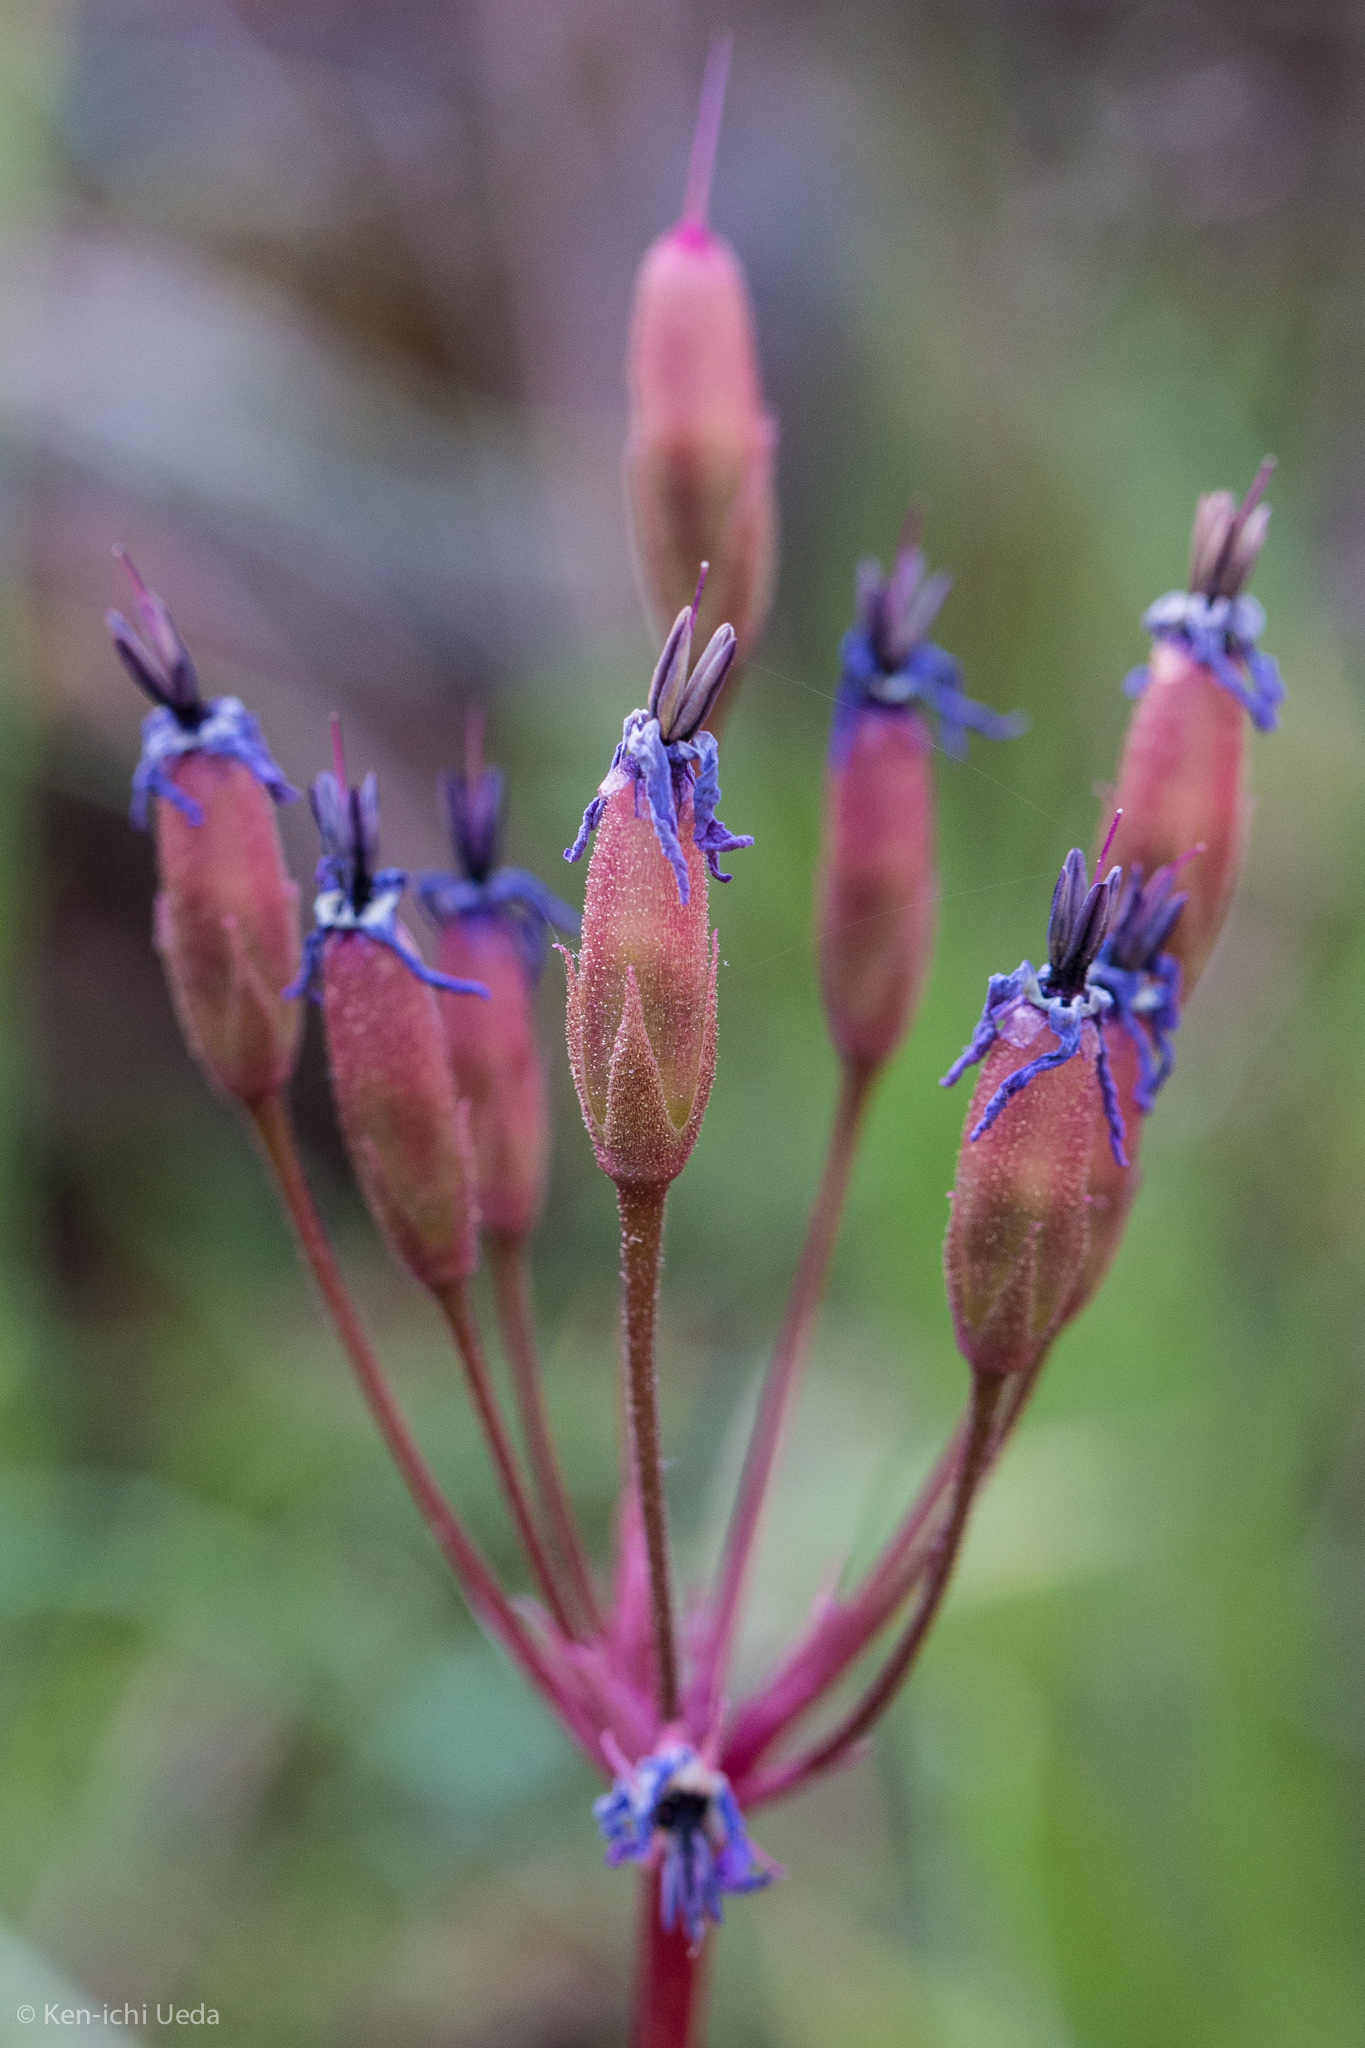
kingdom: Plantae
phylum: Tracheophyta
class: Magnoliopsida
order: Ericales
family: Primulaceae
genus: Dodecatheon
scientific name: Dodecatheon hendersonii
